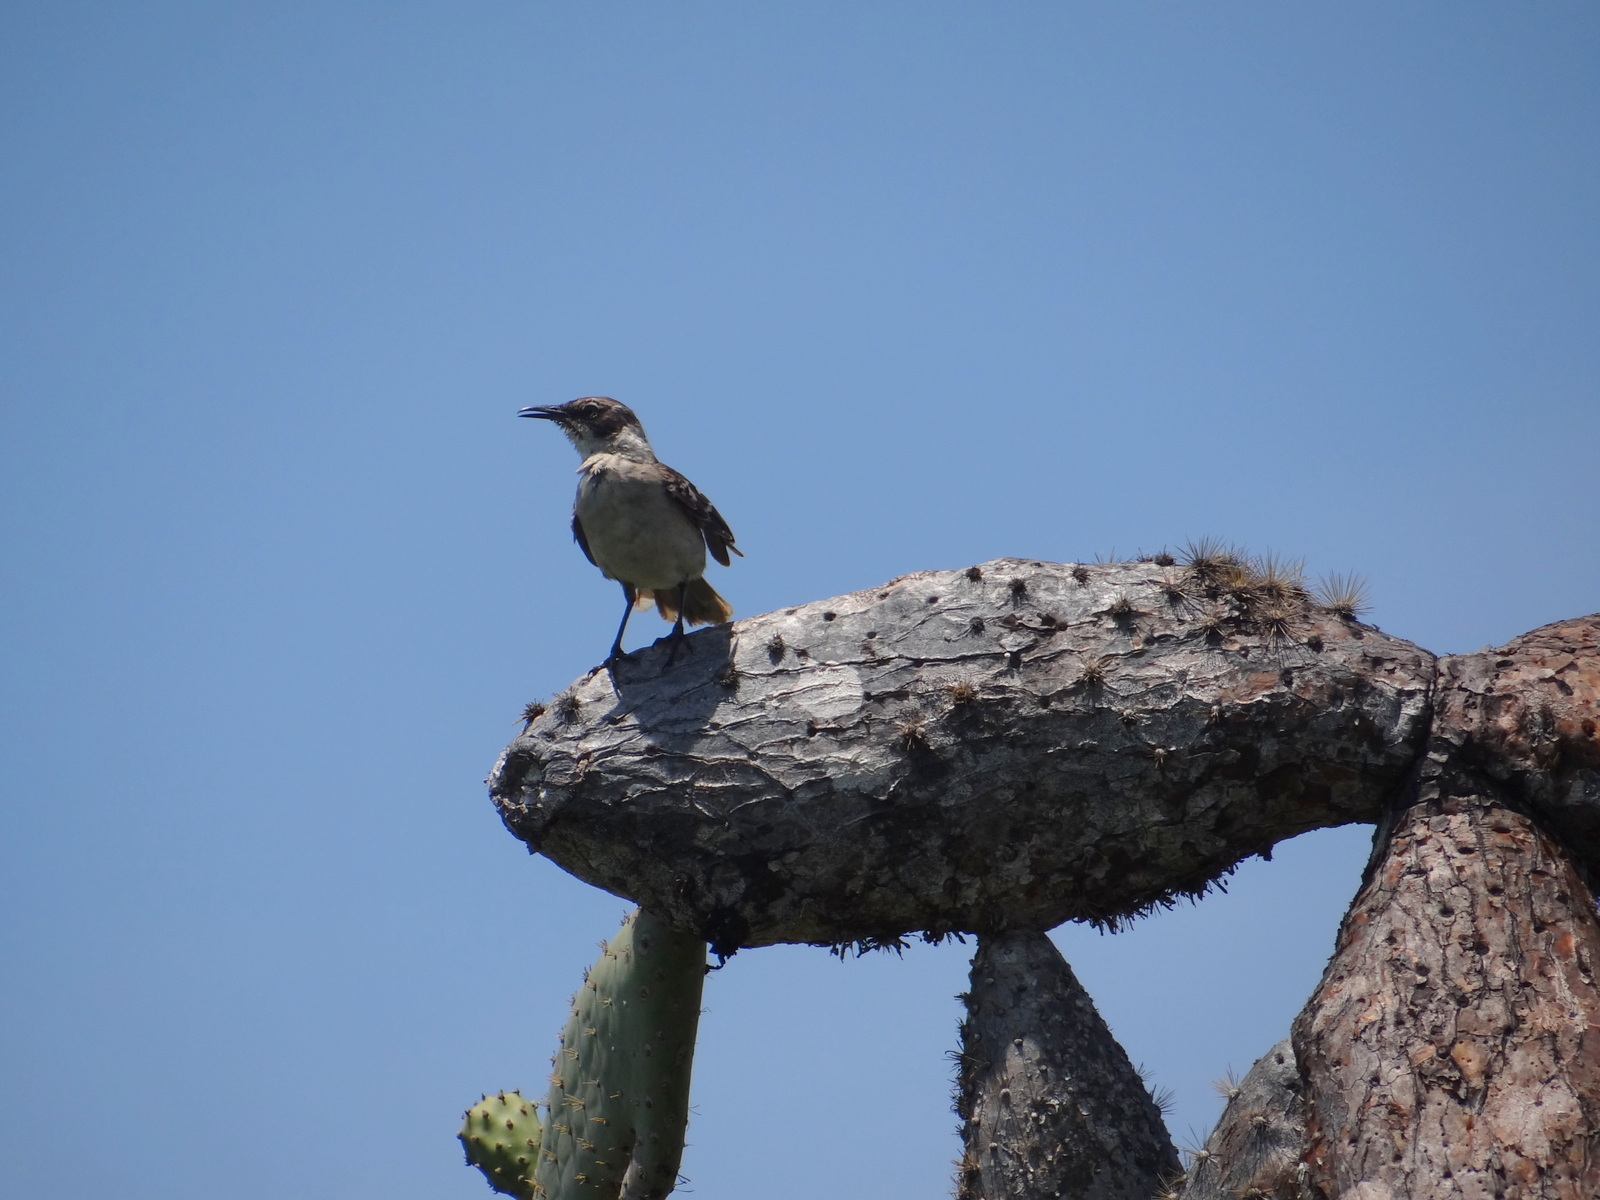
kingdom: Animalia
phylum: Chordata
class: Aves
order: Passeriformes
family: Mimidae
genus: Mimus
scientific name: Mimus parvulus
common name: Galapagos mockingbird
